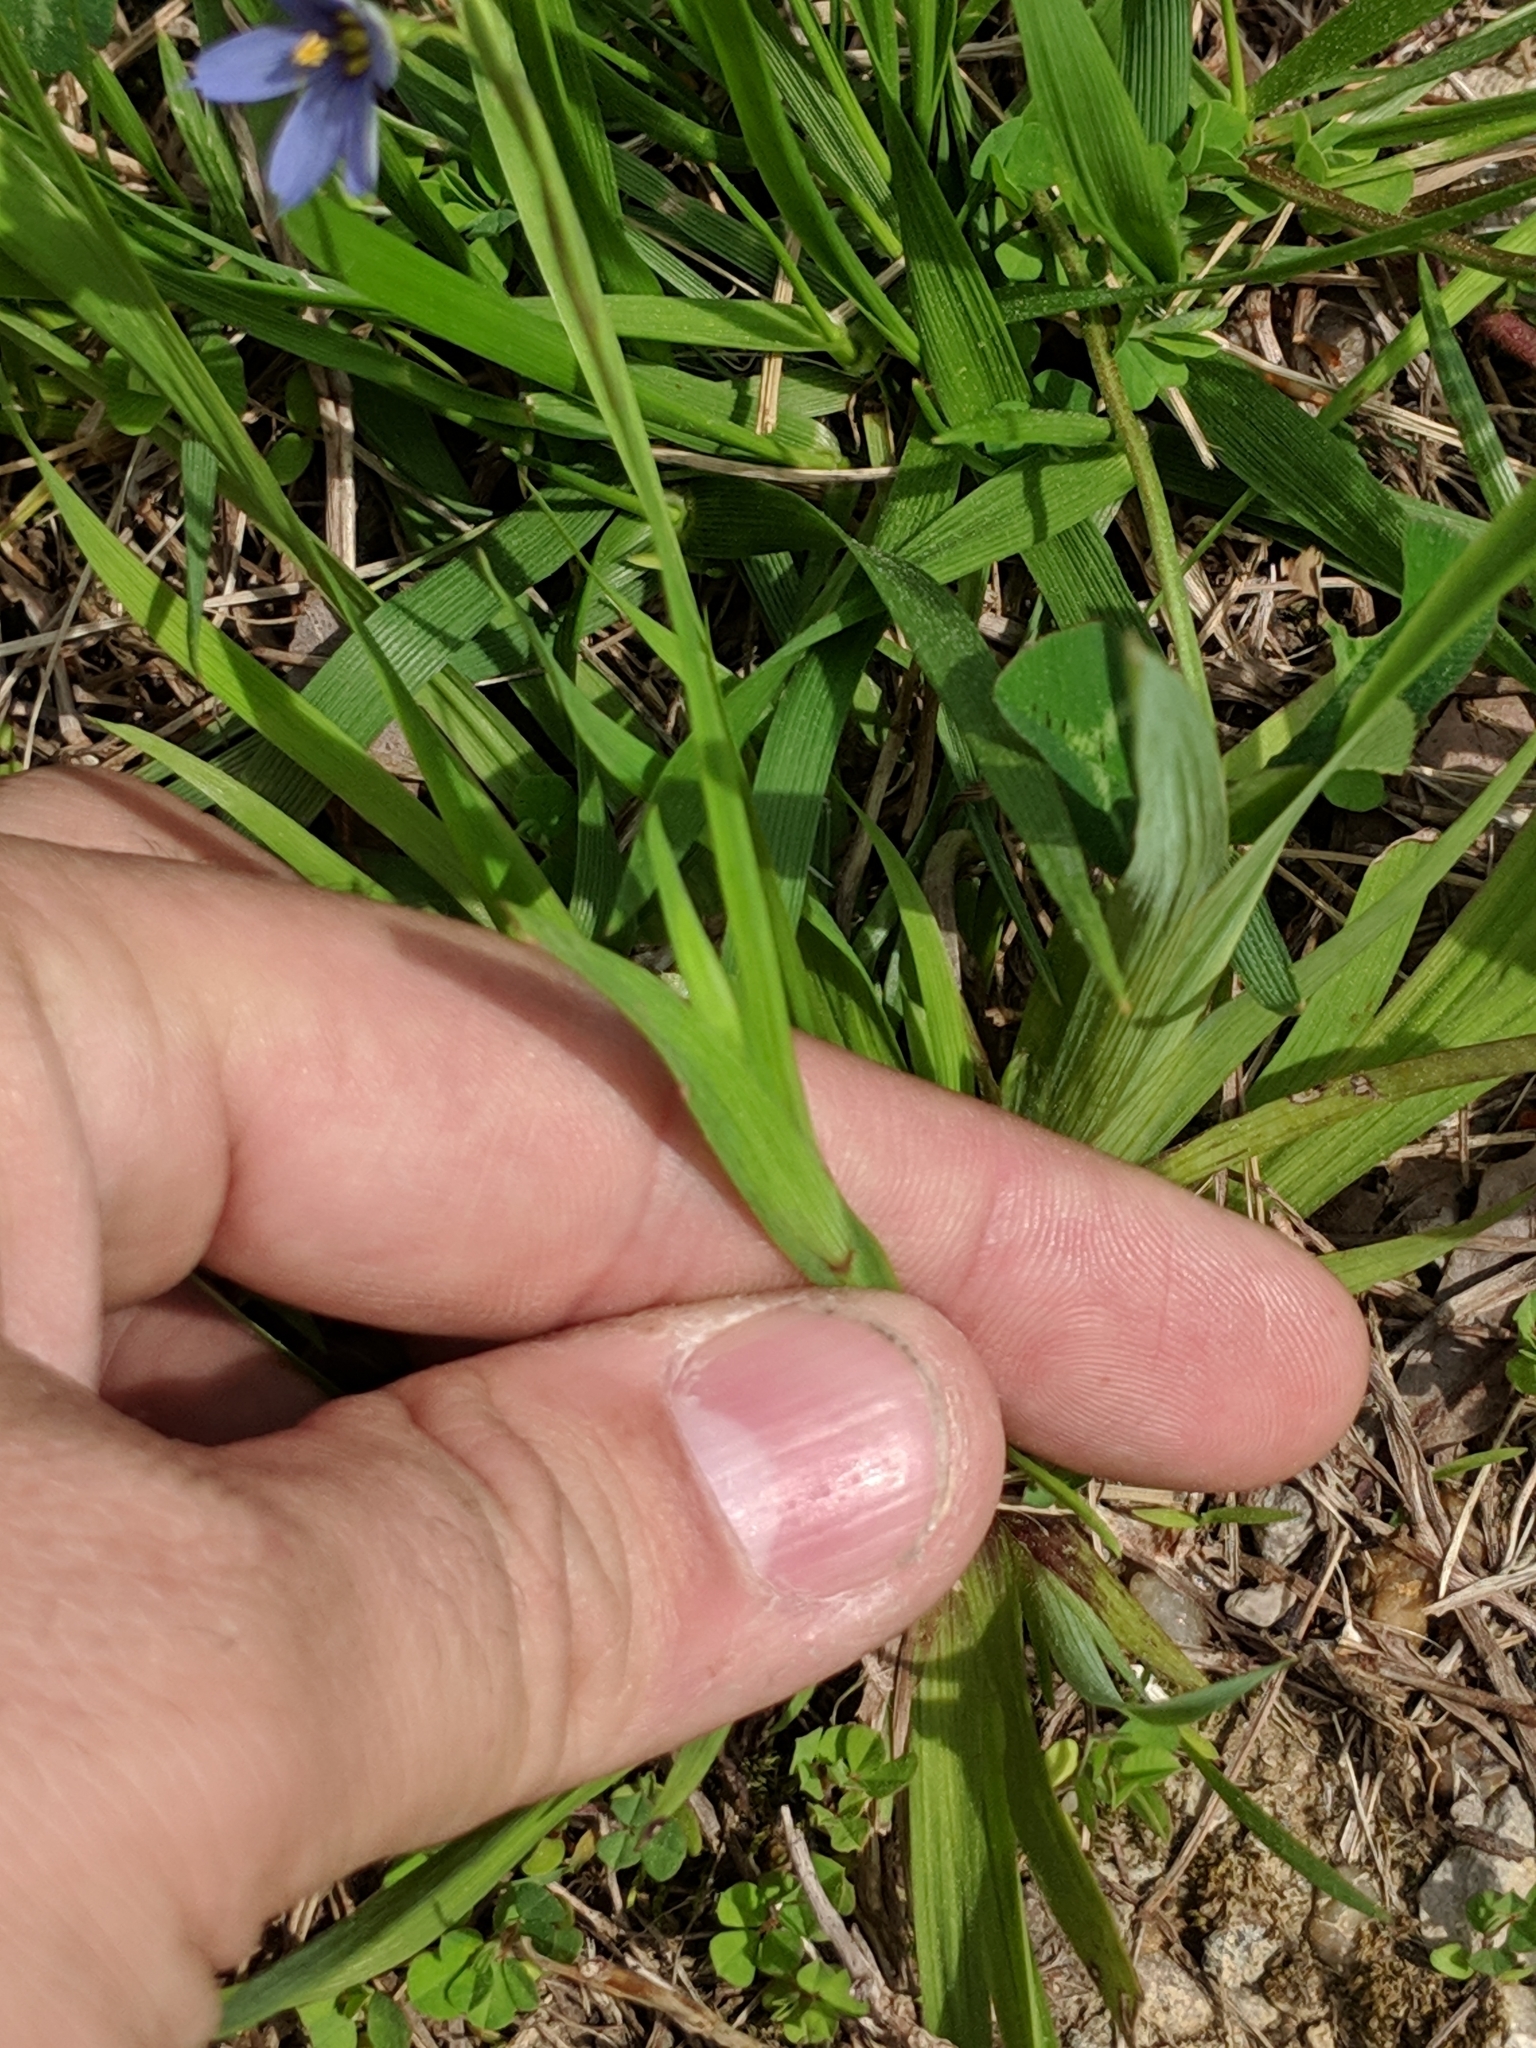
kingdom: Plantae
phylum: Tracheophyta
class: Liliopsida
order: Asparagales
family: Iridaceae
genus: Sisyrinchium
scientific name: Sisyrinchium angustifolium
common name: Narrow-leaf blue-eyed-grass
